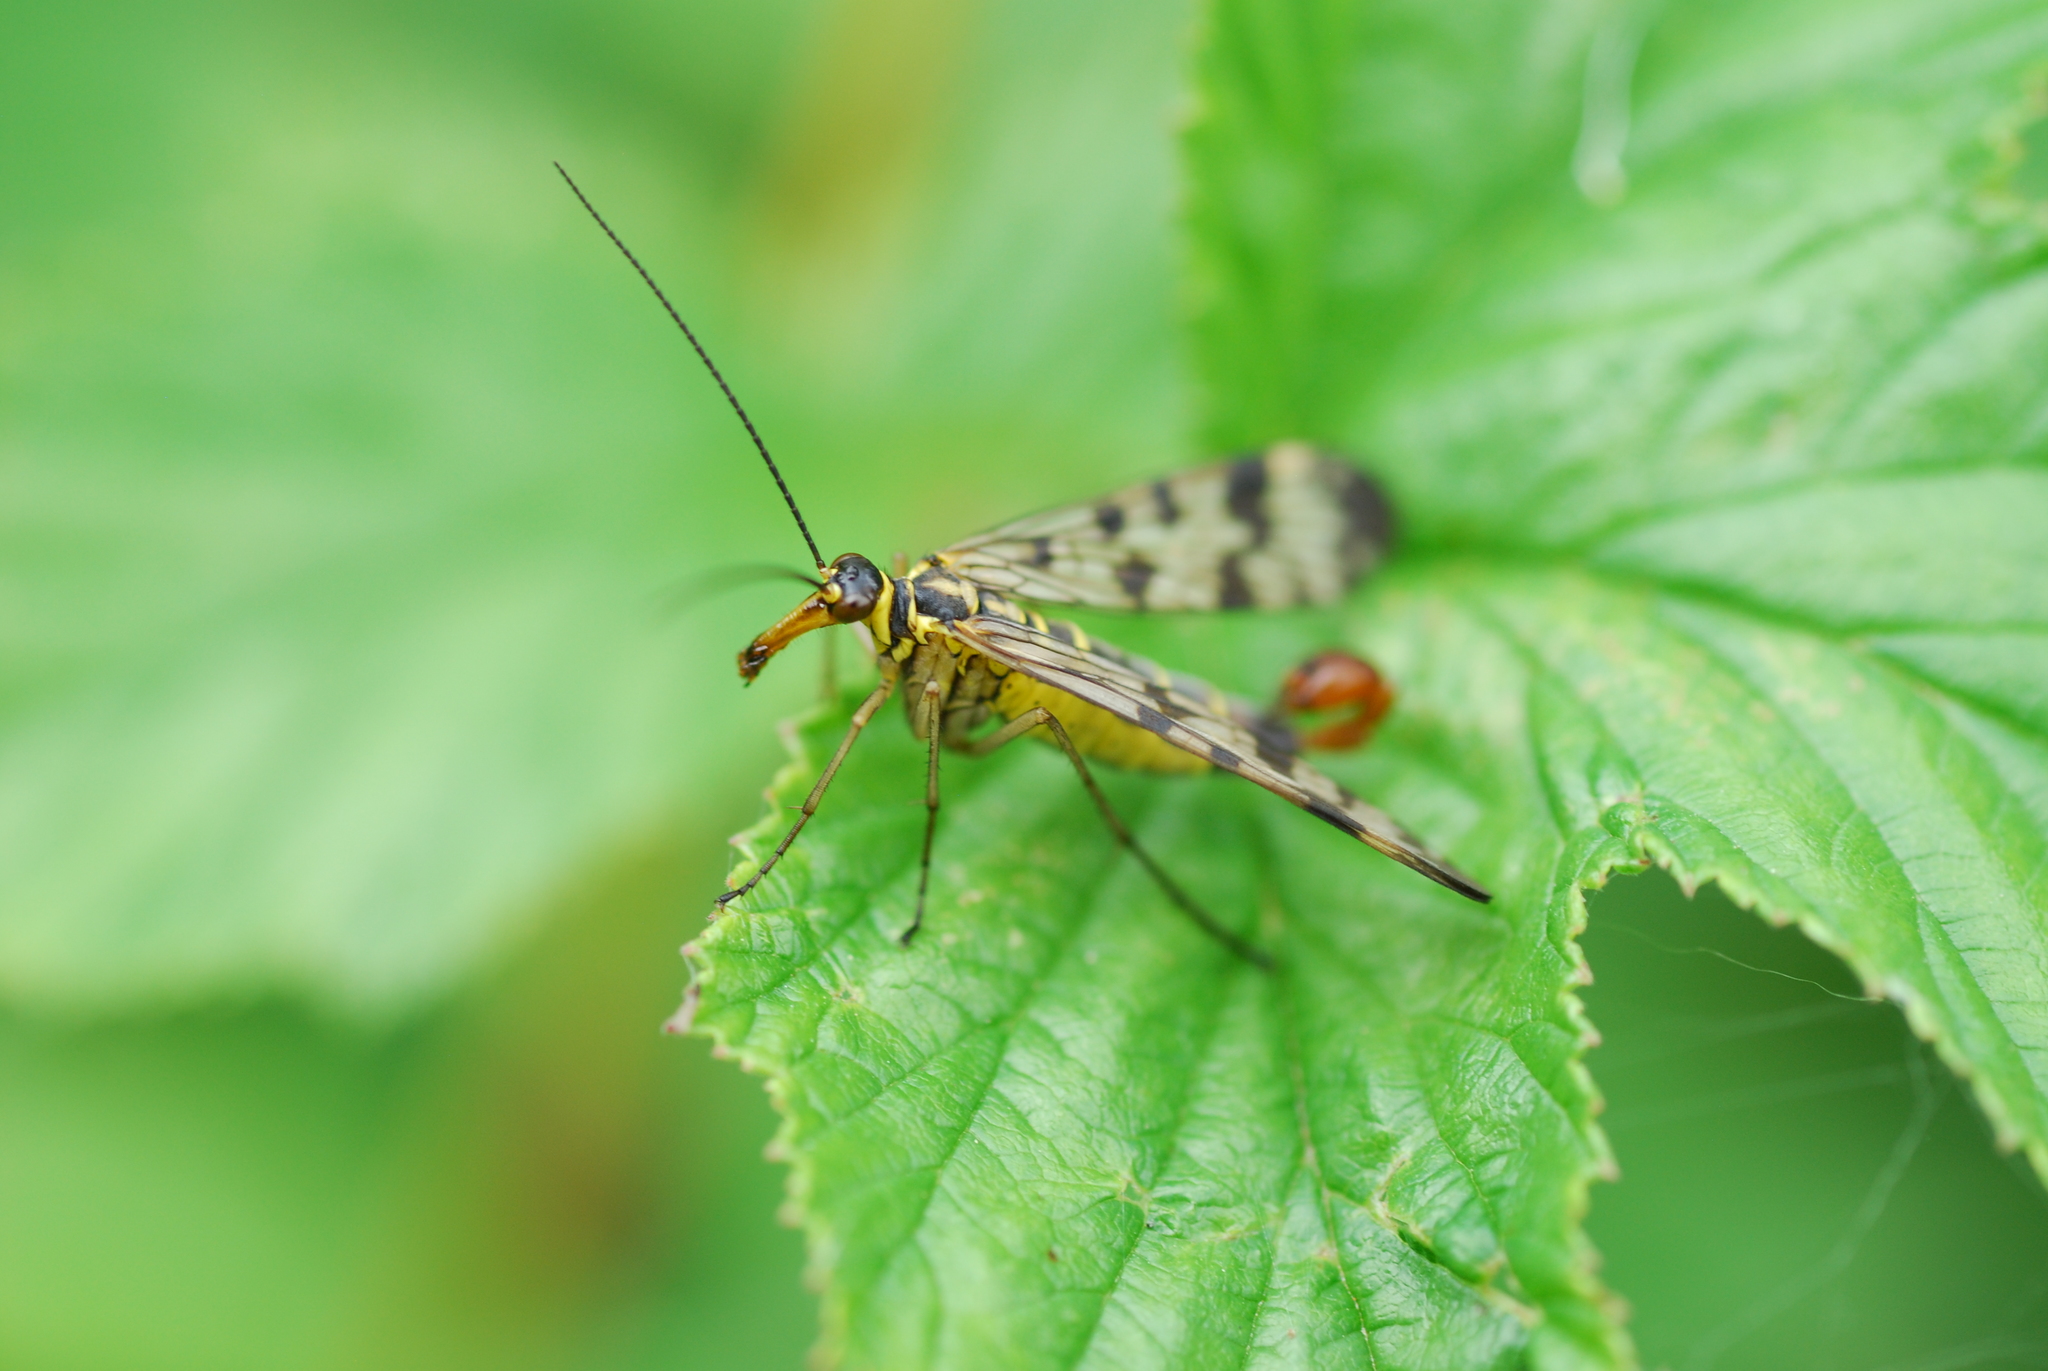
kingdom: Animalia
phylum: Arthropoda
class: Insecta
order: Mecoptera
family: Panorpidae
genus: Panorpa
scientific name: Panorpa communis
